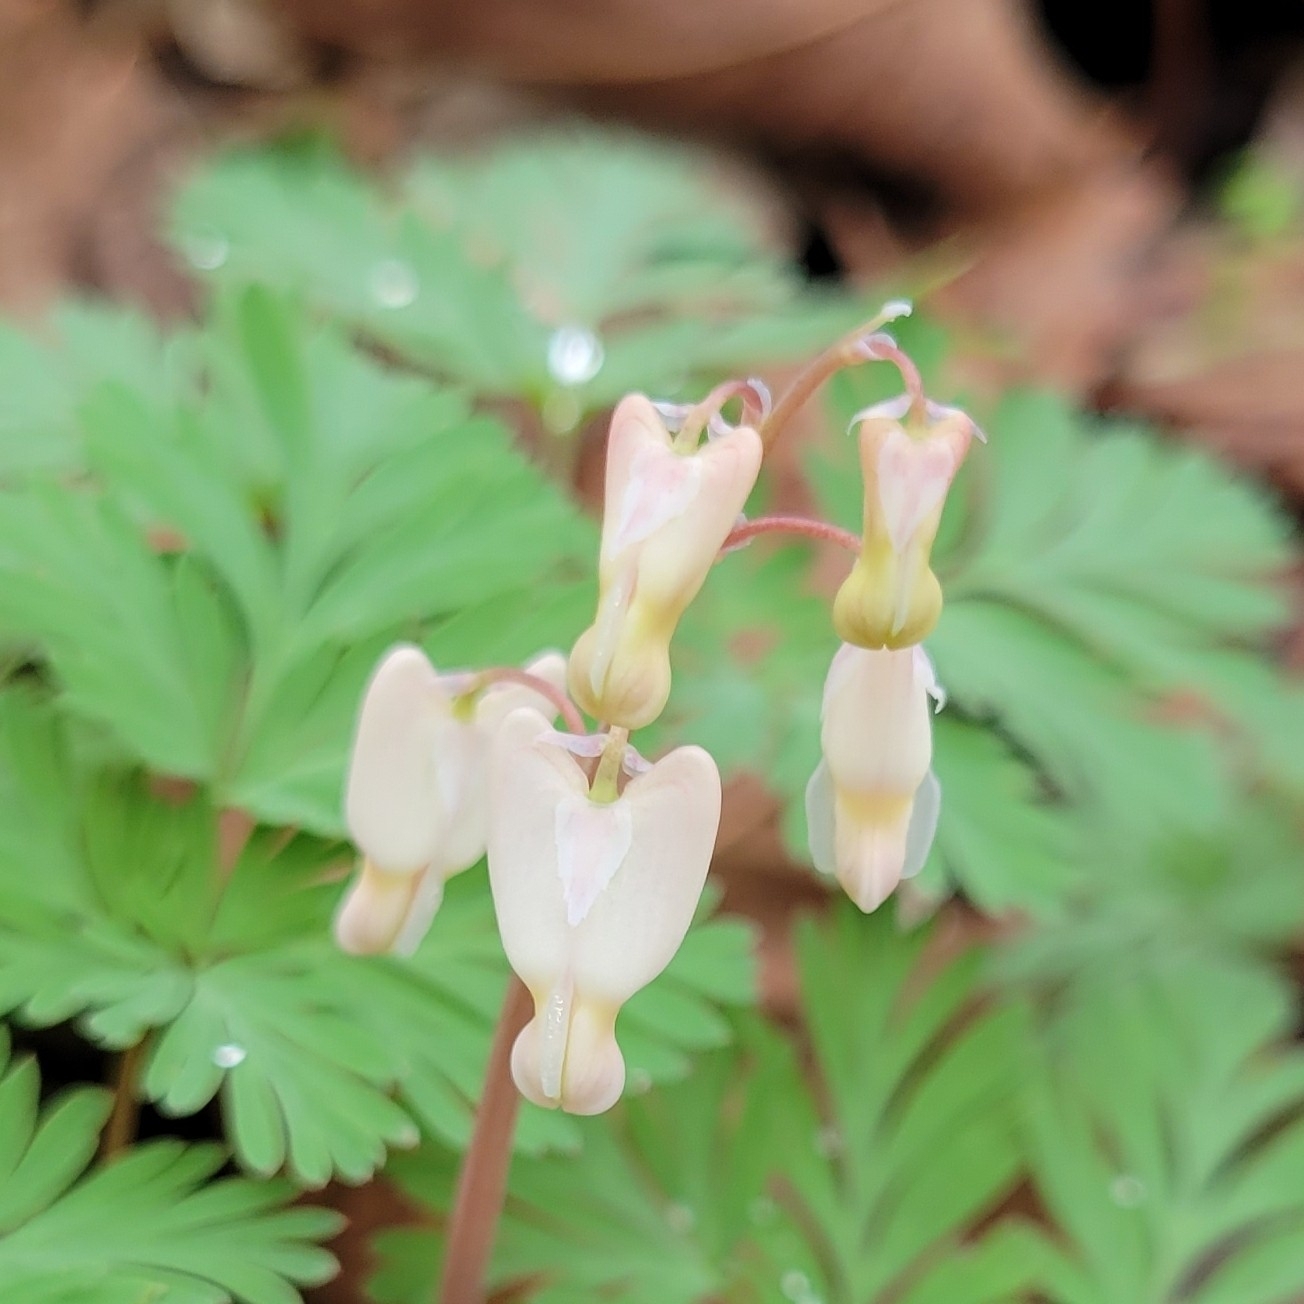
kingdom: Plantae
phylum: Tracheophyta
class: Magnoliopsida
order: Ranunculales
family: Papaveraceae
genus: Dicentra
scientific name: Dicentra cucullaria
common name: Dutchman's breeches
